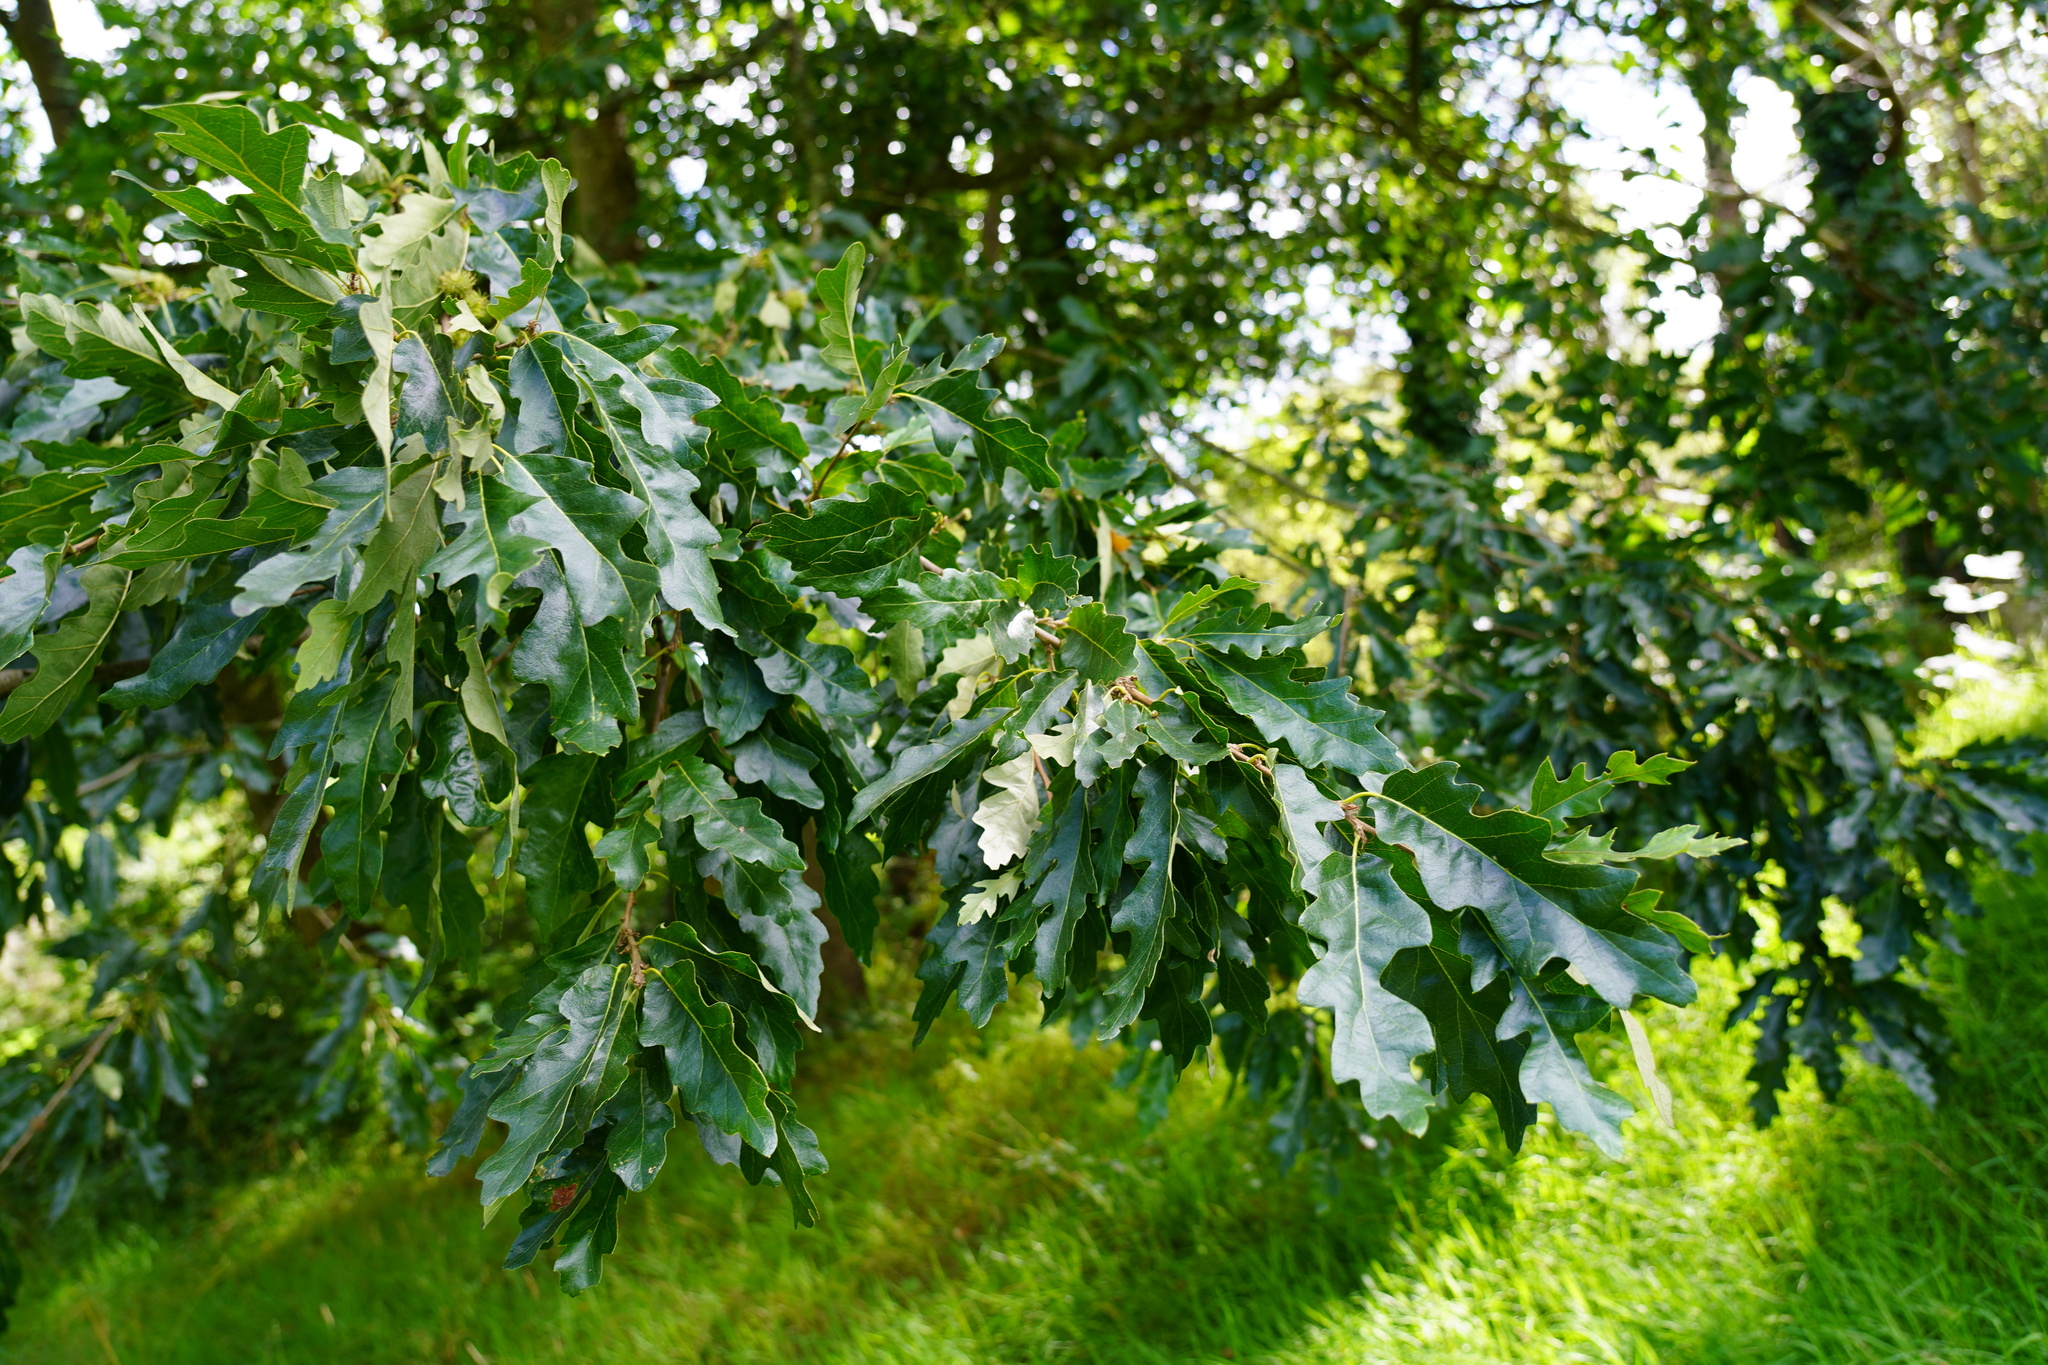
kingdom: Plantae
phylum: Tracheophyta
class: Magnoliopsida
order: Fagales
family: Fagaceae
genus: Quercus
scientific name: Quercus cerris
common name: Turkey oak
